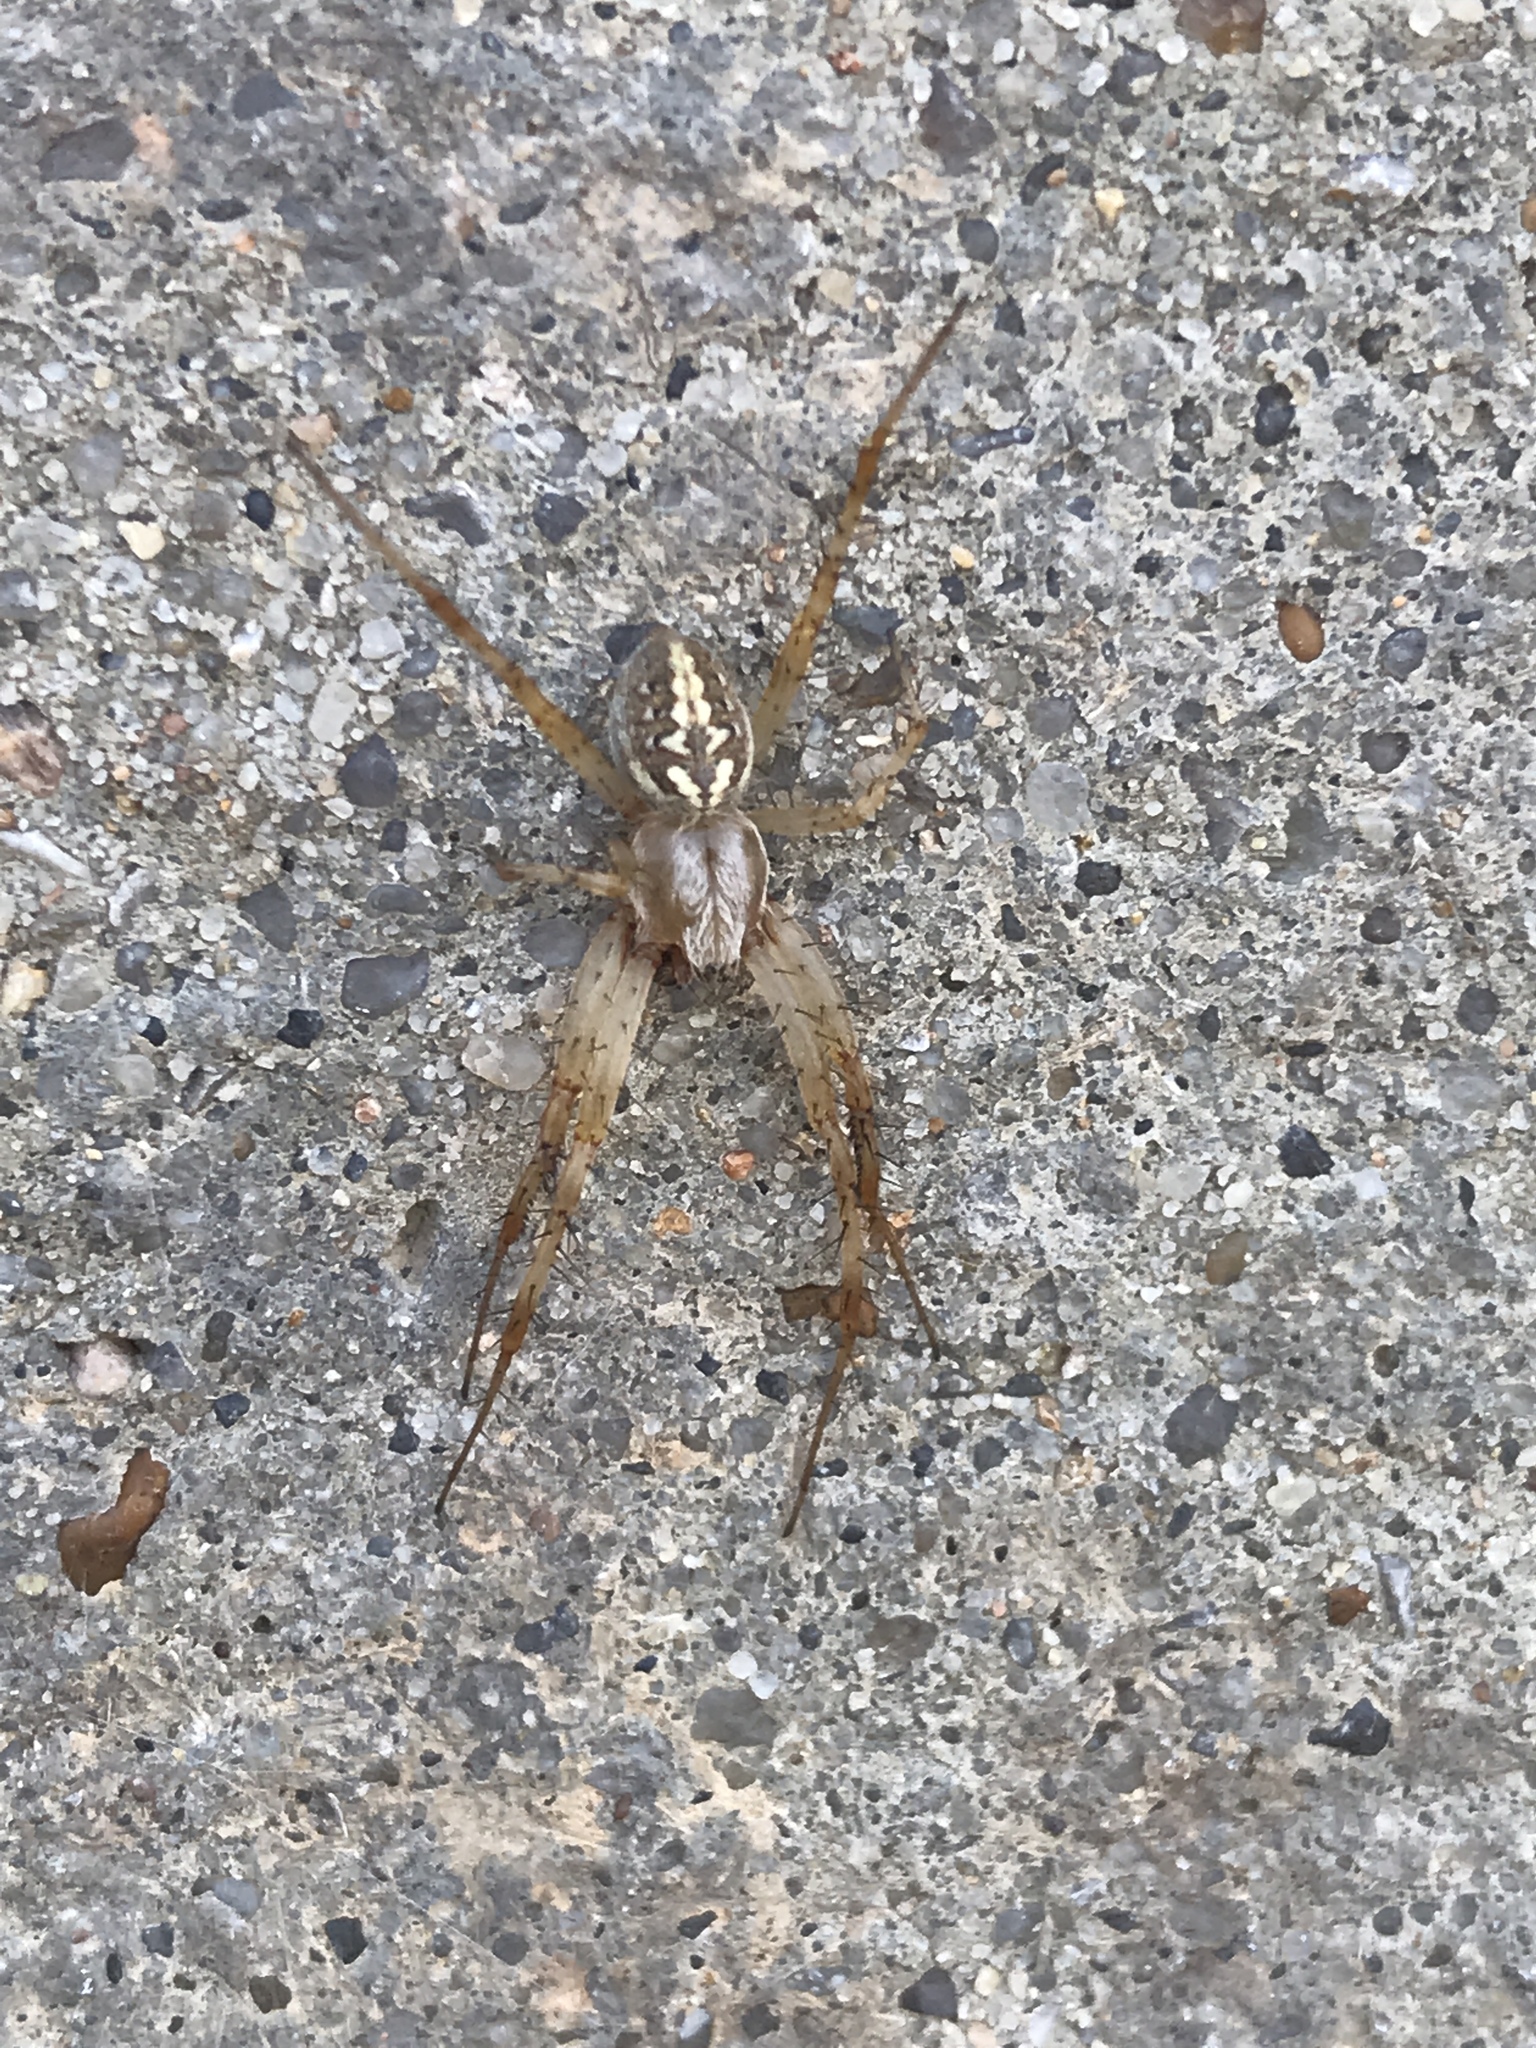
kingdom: Animalia
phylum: Arthropoda
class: Arachnida
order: Araneae
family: Araneidae
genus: Neoscona
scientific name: Neoscona oaxacensis
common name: Orb weavers
